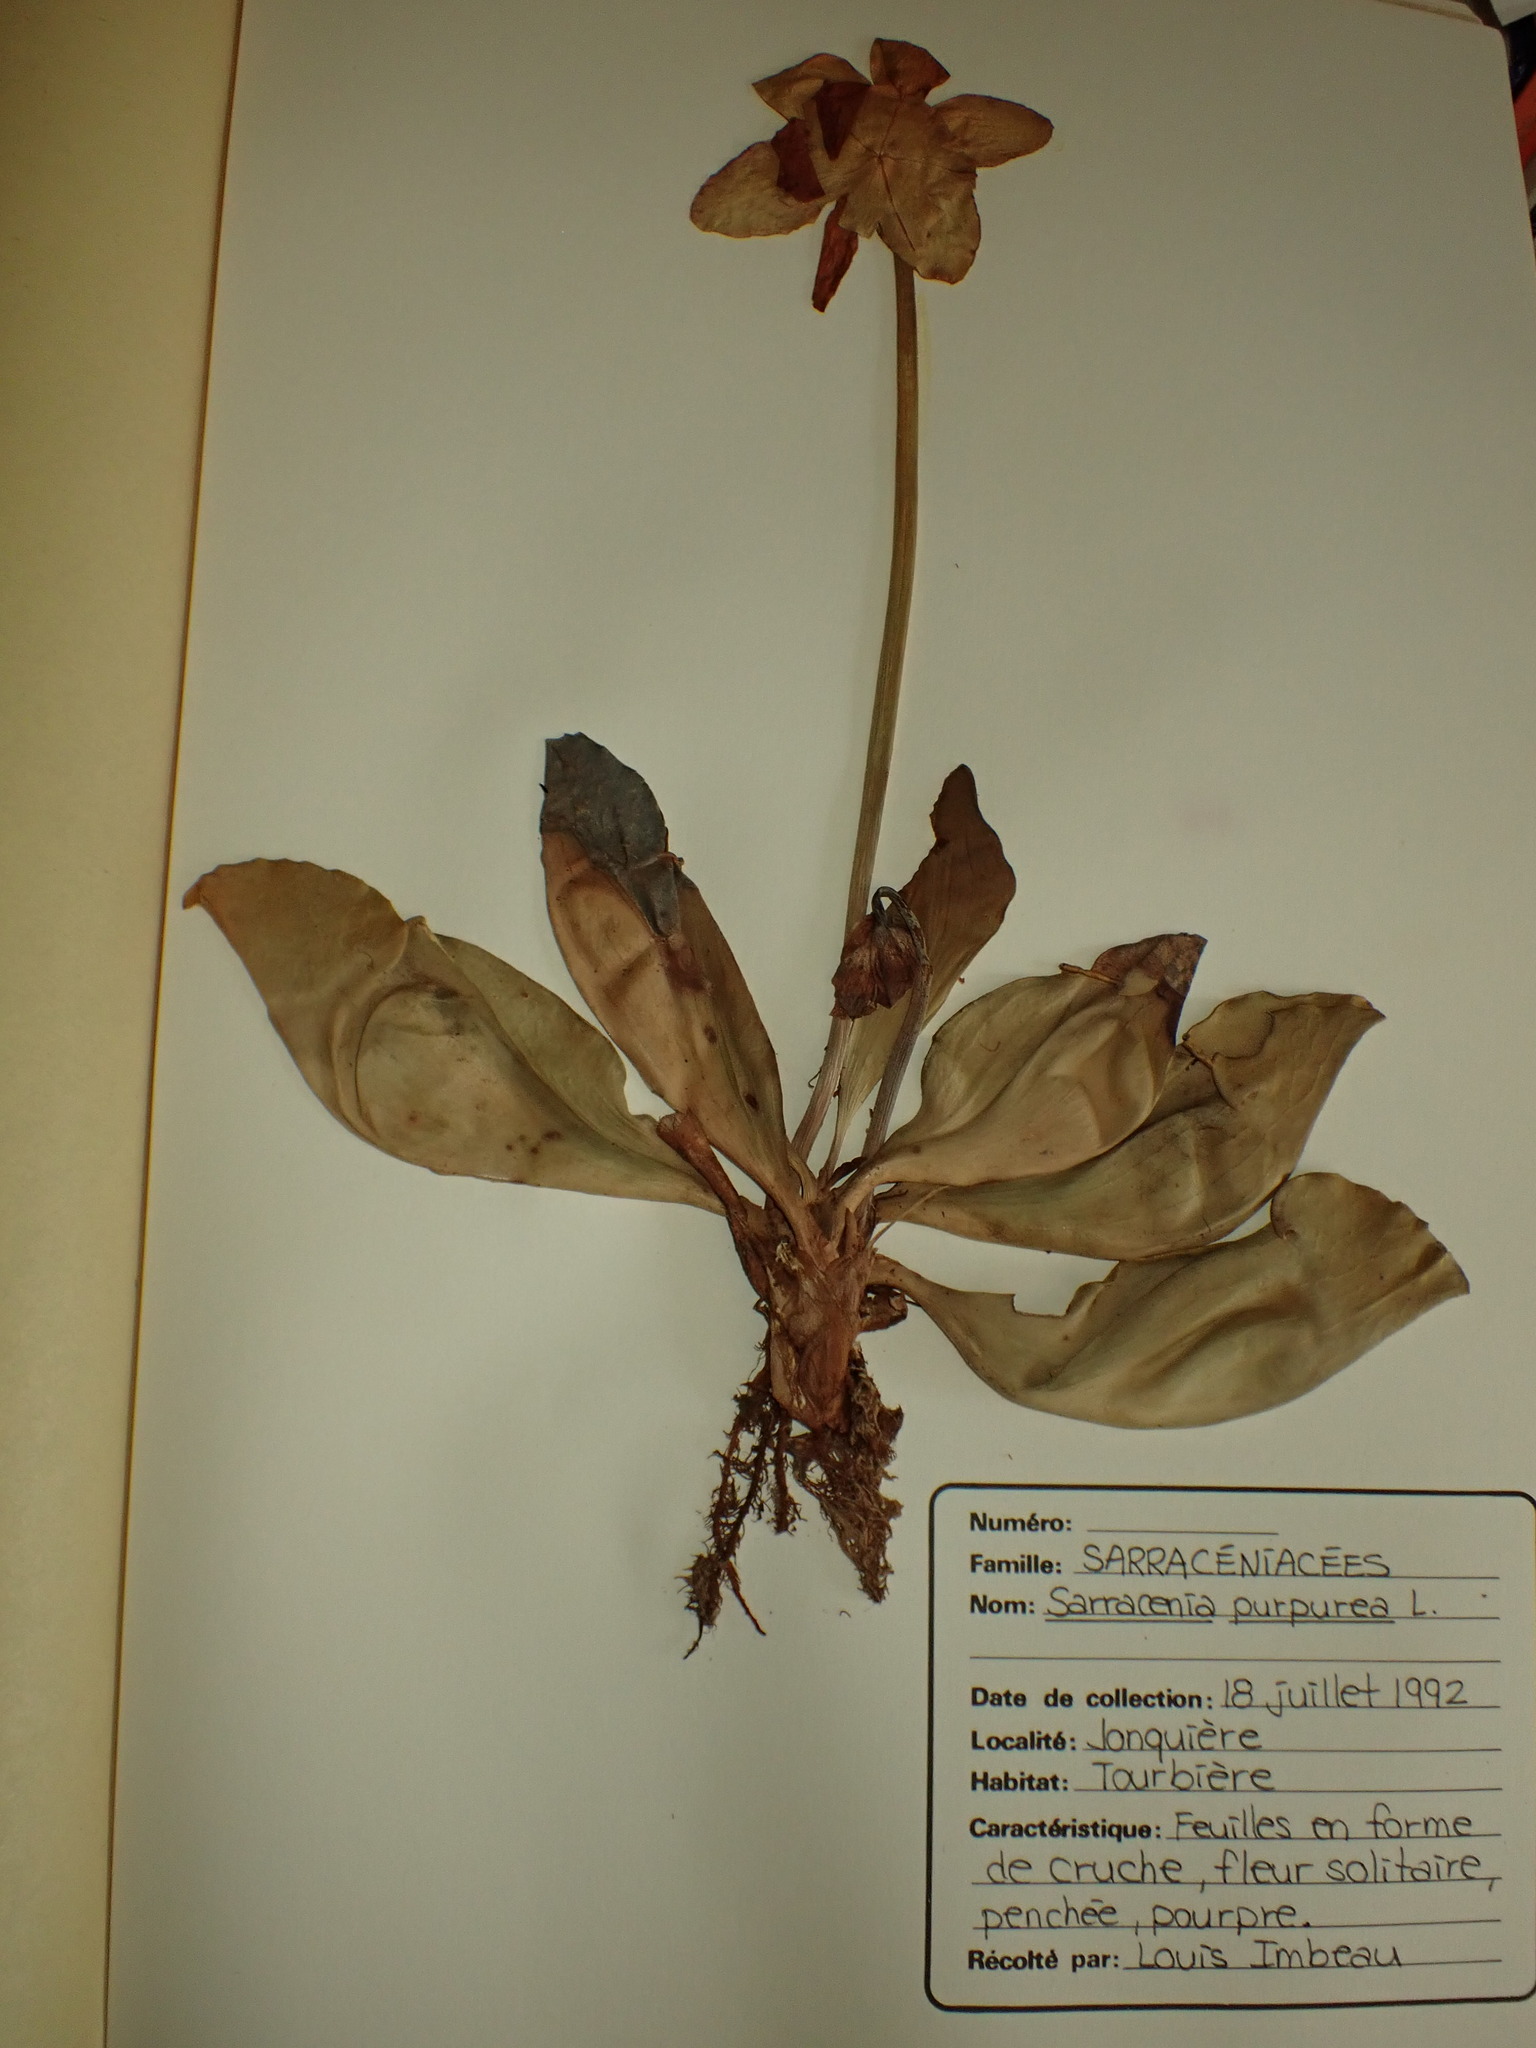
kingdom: Plantae
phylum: Tracheophyta
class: Magnoliopsida
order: Ericales
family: Sarraceniaceae
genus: Sarracenia
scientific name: Sarracenia purpurea
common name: Pitcherplant
